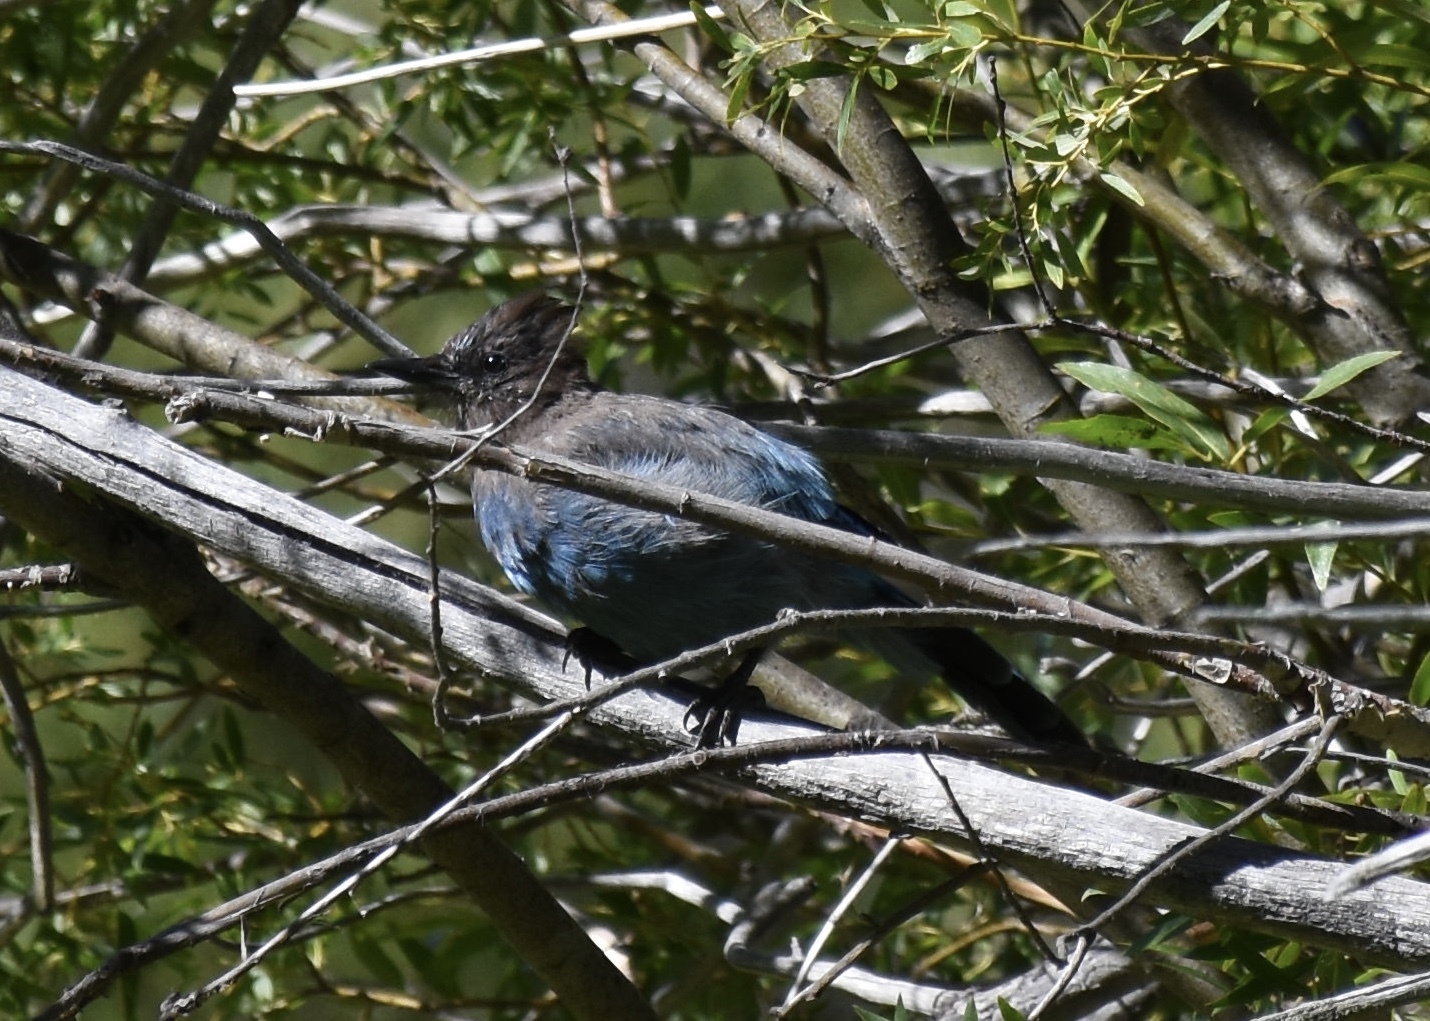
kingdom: Animalia
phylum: Chordata
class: Aves
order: Passeriformes
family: Corvidae
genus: Cyanocitta
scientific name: Cyanocitta stelleri
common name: Steller's jay
